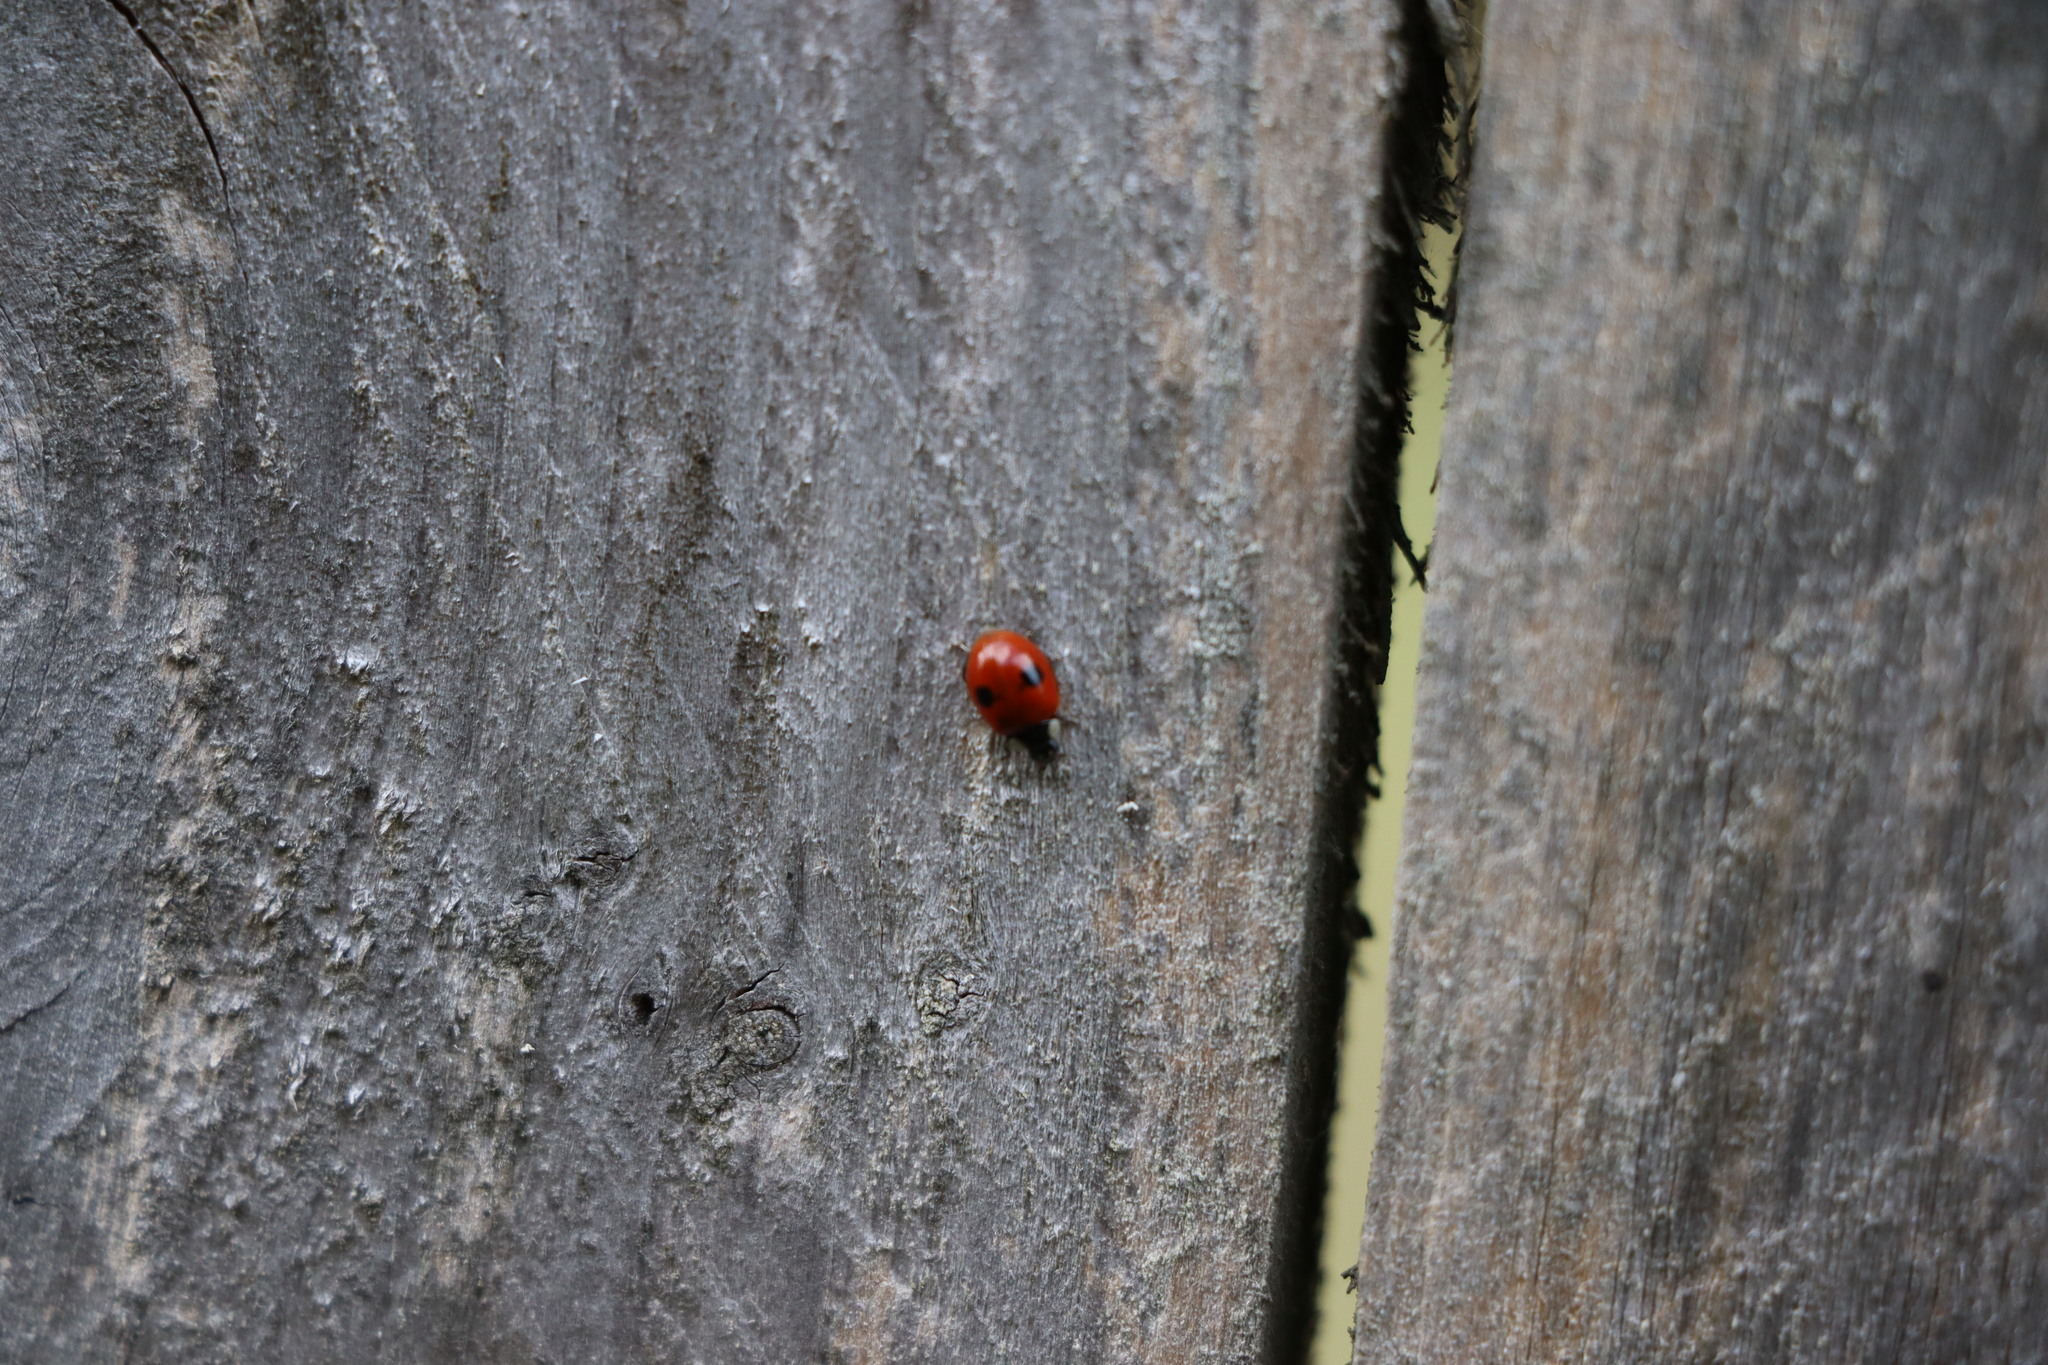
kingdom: Animalia
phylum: Arthropoda
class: Insecta
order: Coleoptera
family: Coccinellidae
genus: Adalia
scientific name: Adalia bipunctata
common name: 2-spot ladybird
